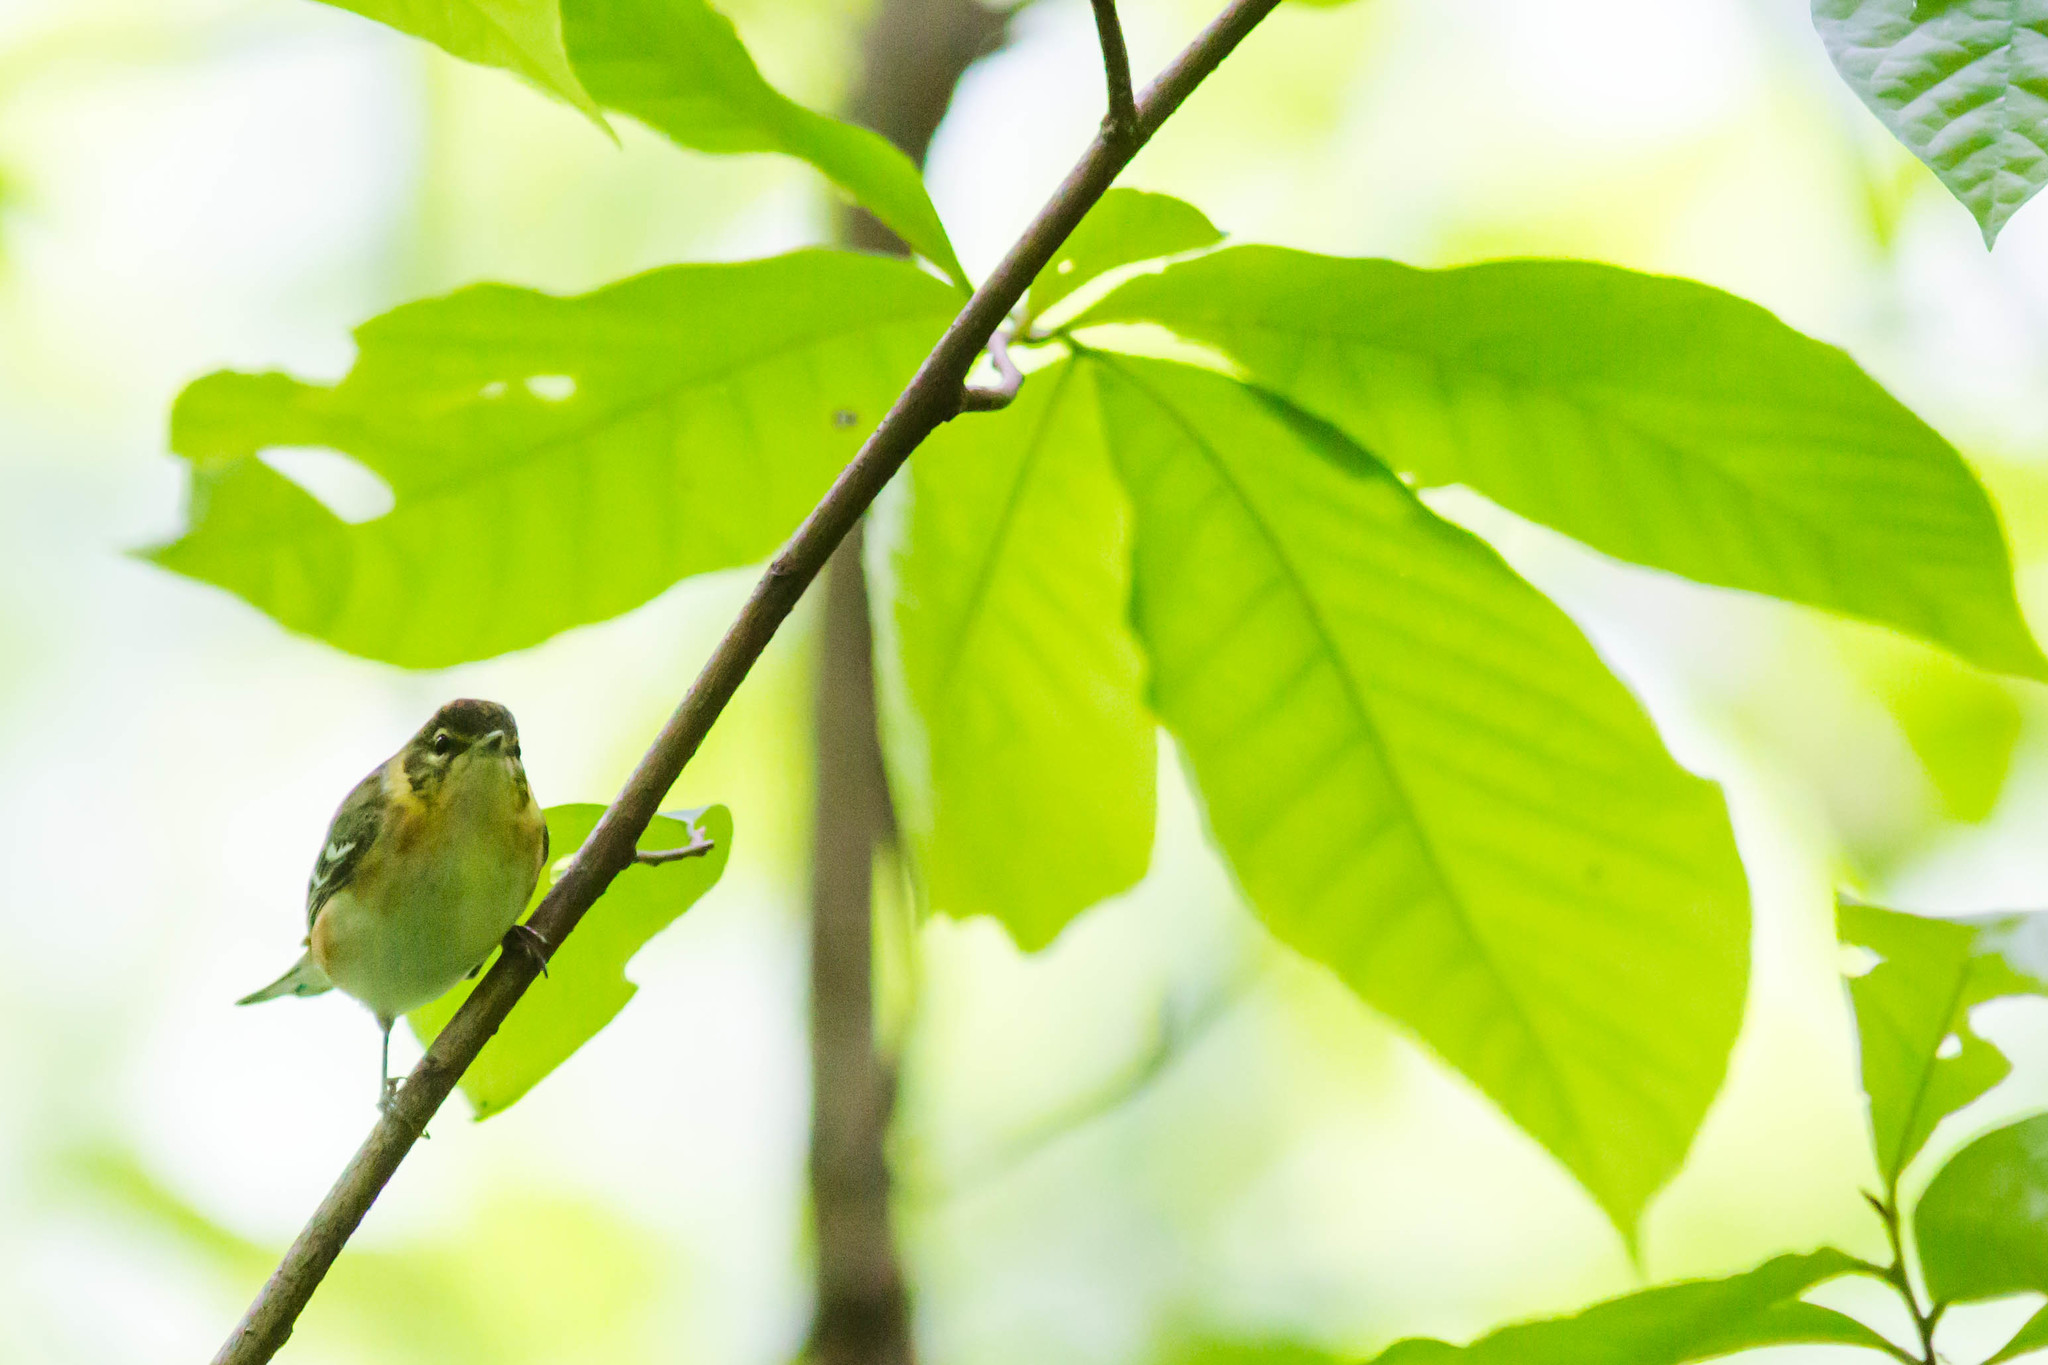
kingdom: Animalia
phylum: Chordata
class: Aves
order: Passeriformes
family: Parulidae
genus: Setophaga
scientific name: Setophaga castanea
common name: Bay-breasted warbler
